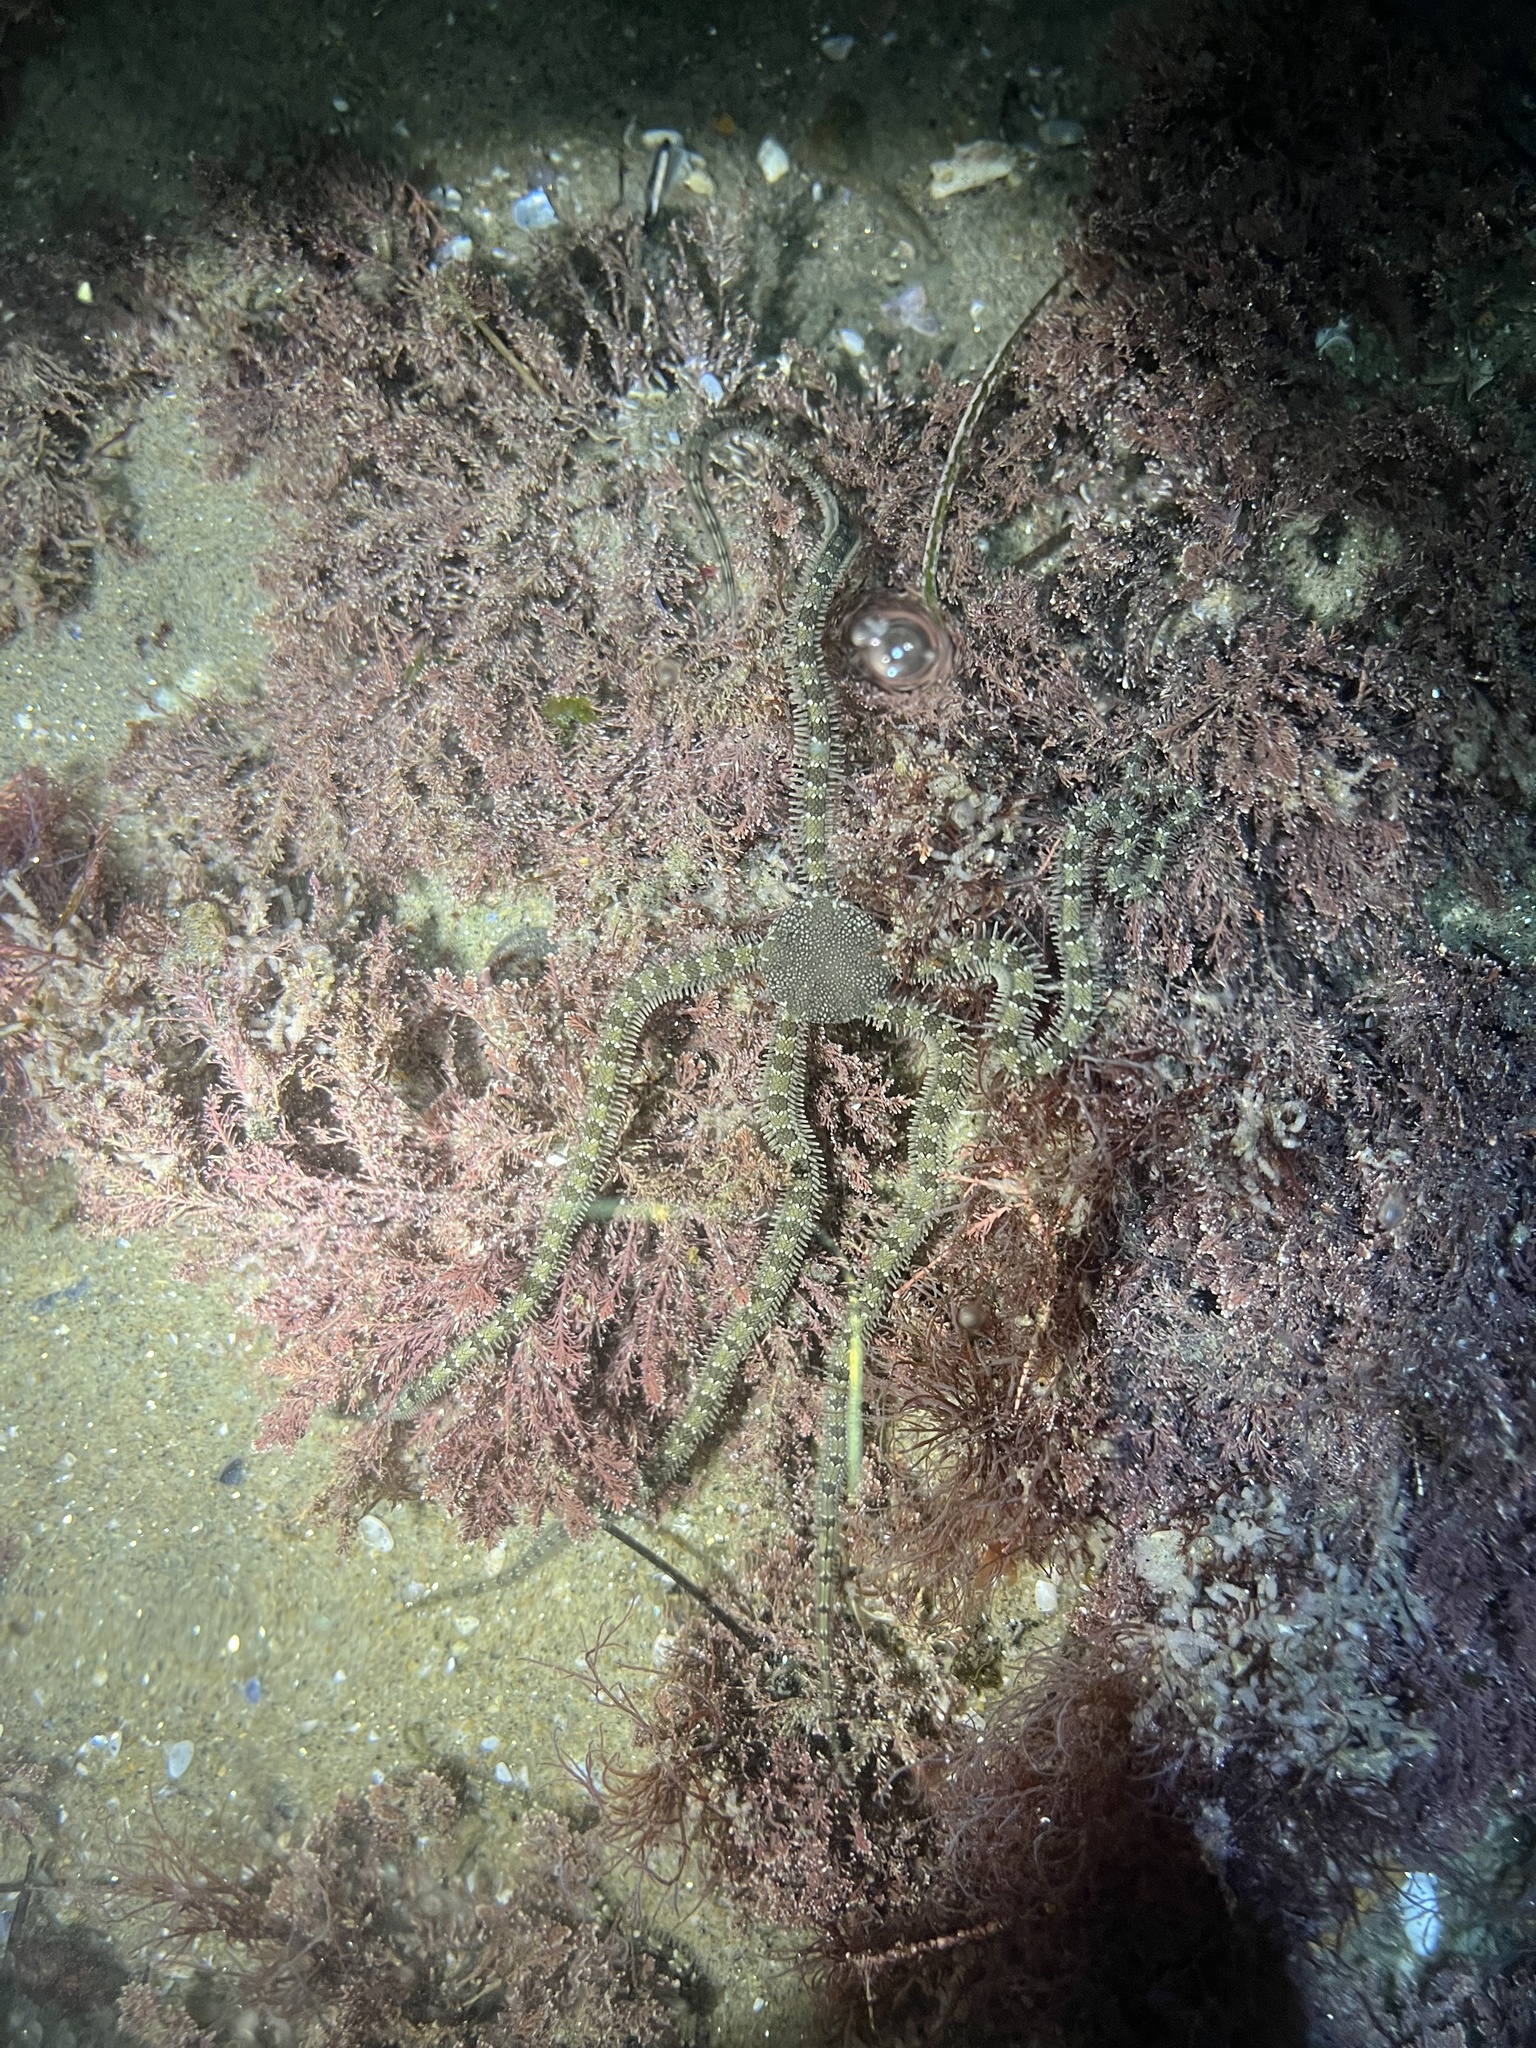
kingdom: Animalia
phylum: Echinodermata
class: Ophiuroidea
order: Amphilepidida
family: Ophionereididae
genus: Ophionereis
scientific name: Ophionereis annulata
